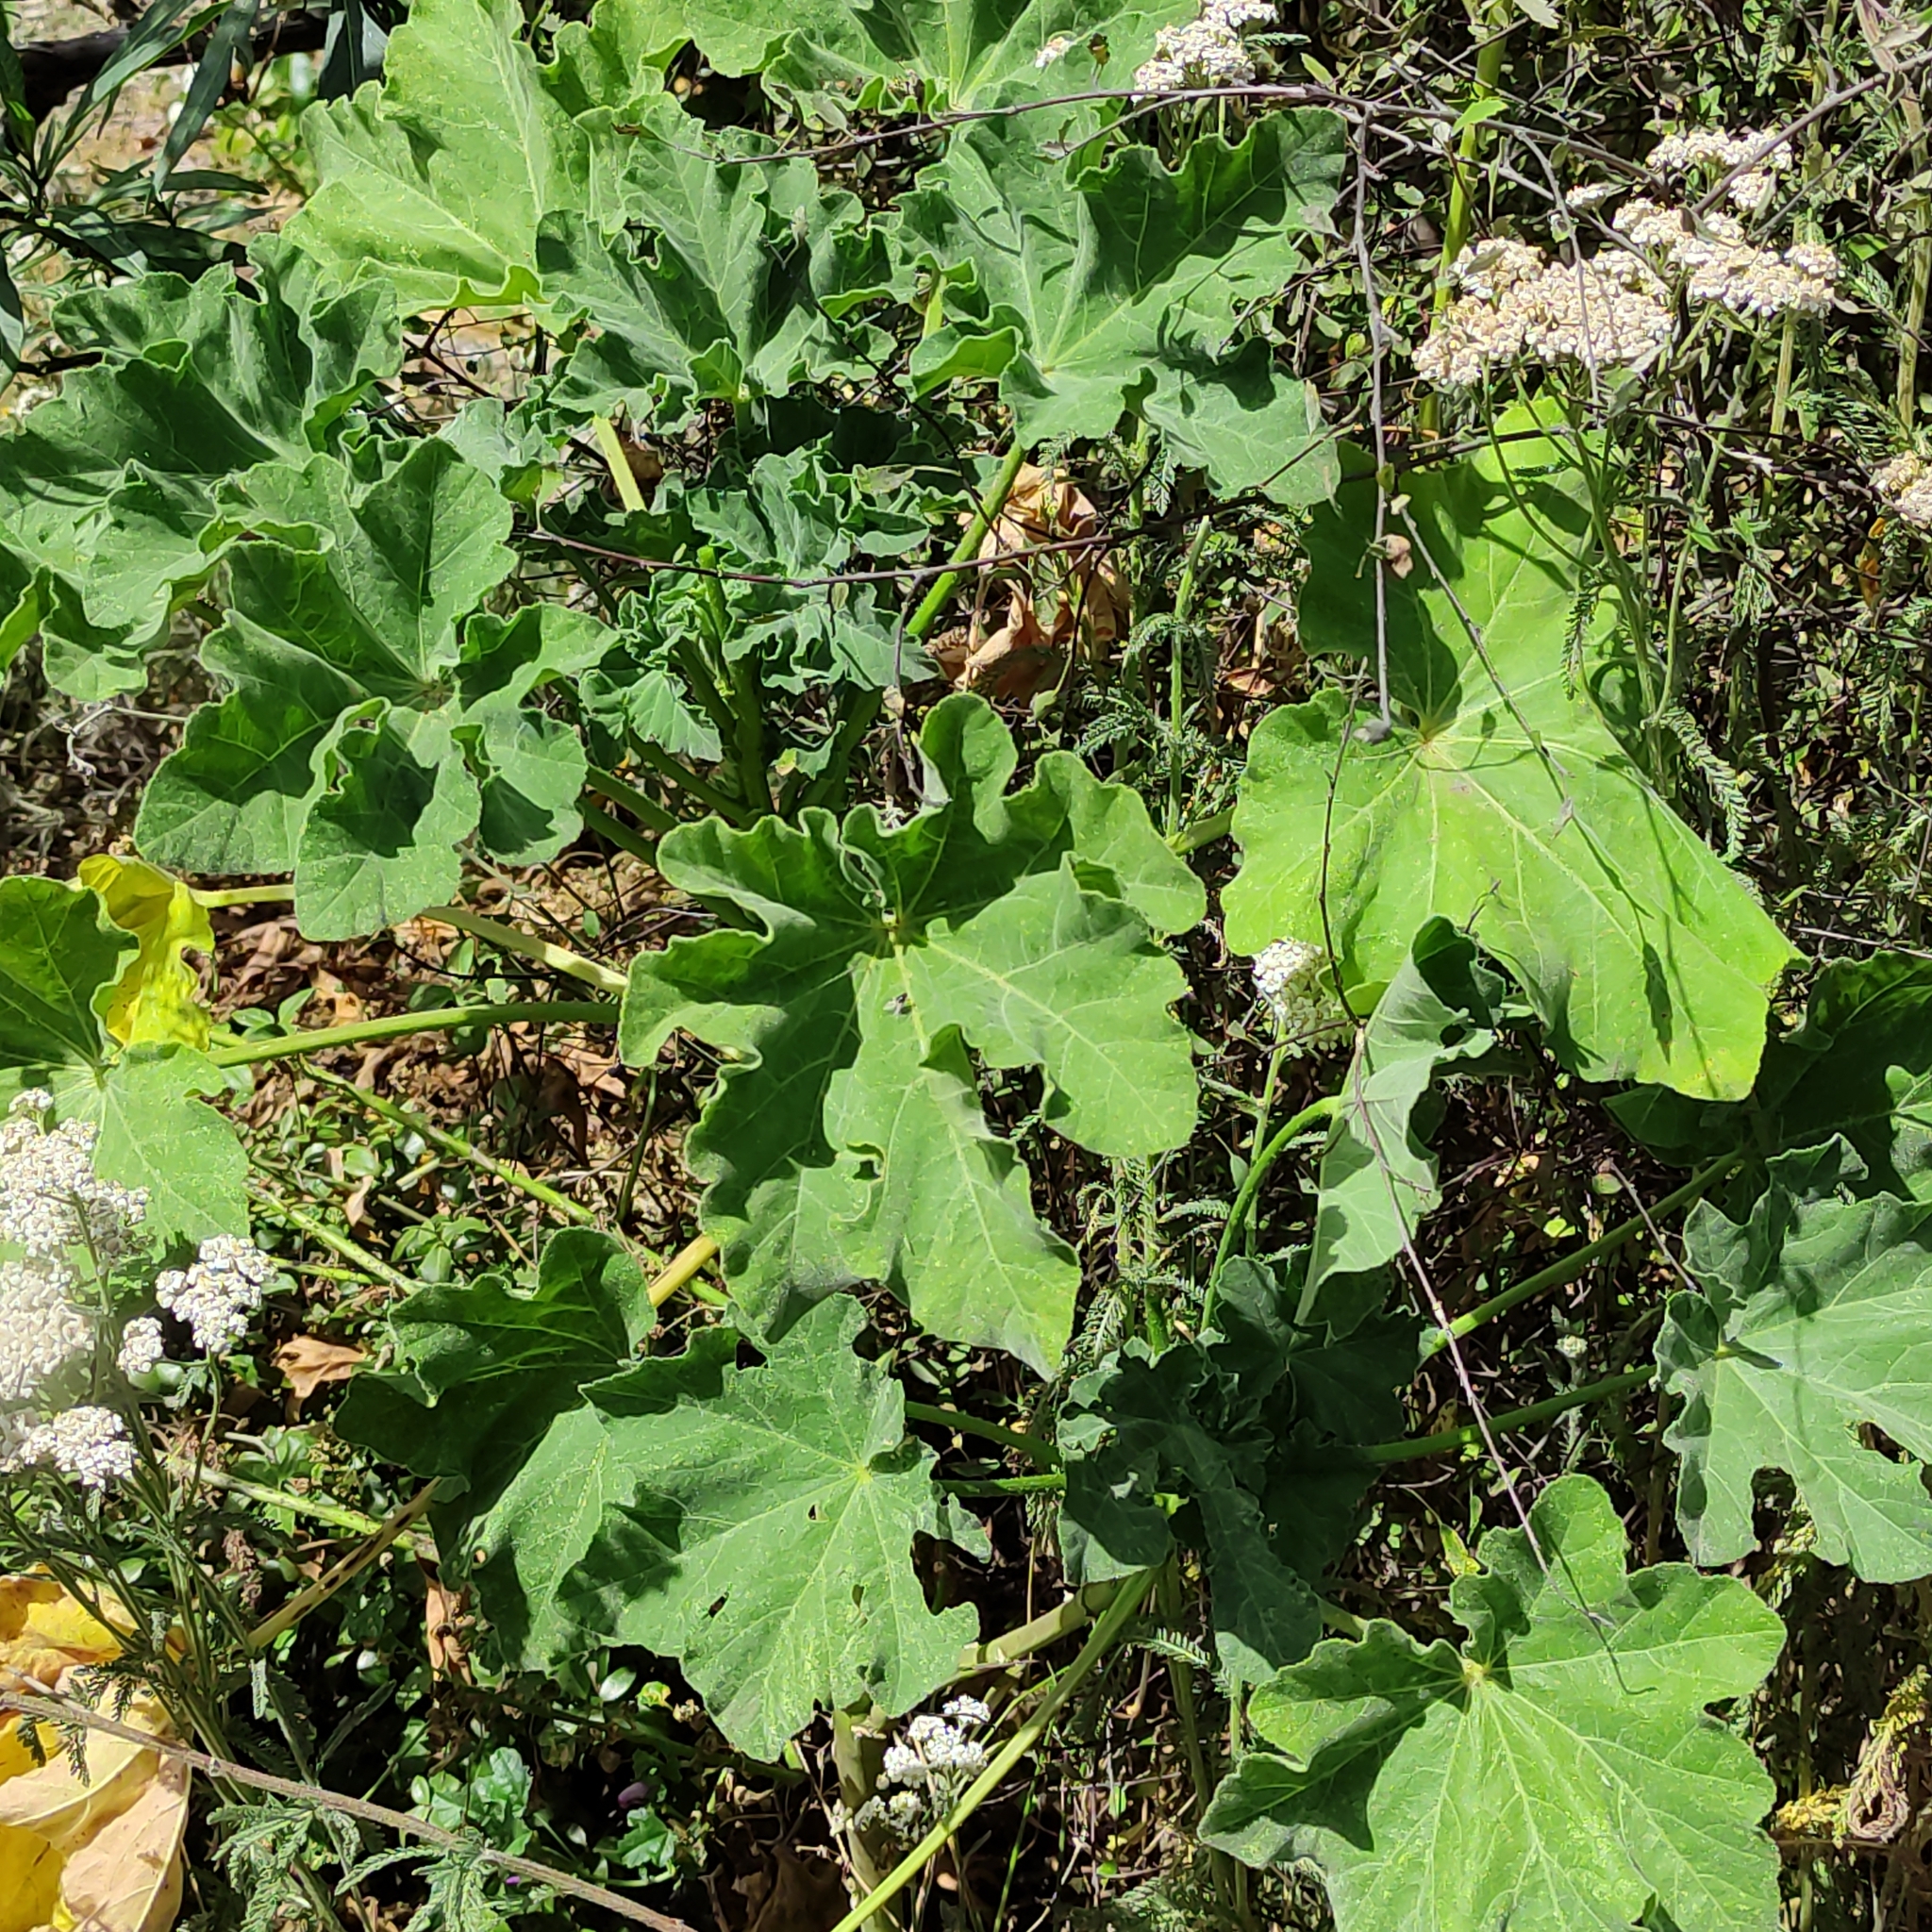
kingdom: Plantae
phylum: Tracheophyta
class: Magnoliopsida
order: Malvales
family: Malvaceae
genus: Malva
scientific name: Malva arborea
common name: Tree mallow
